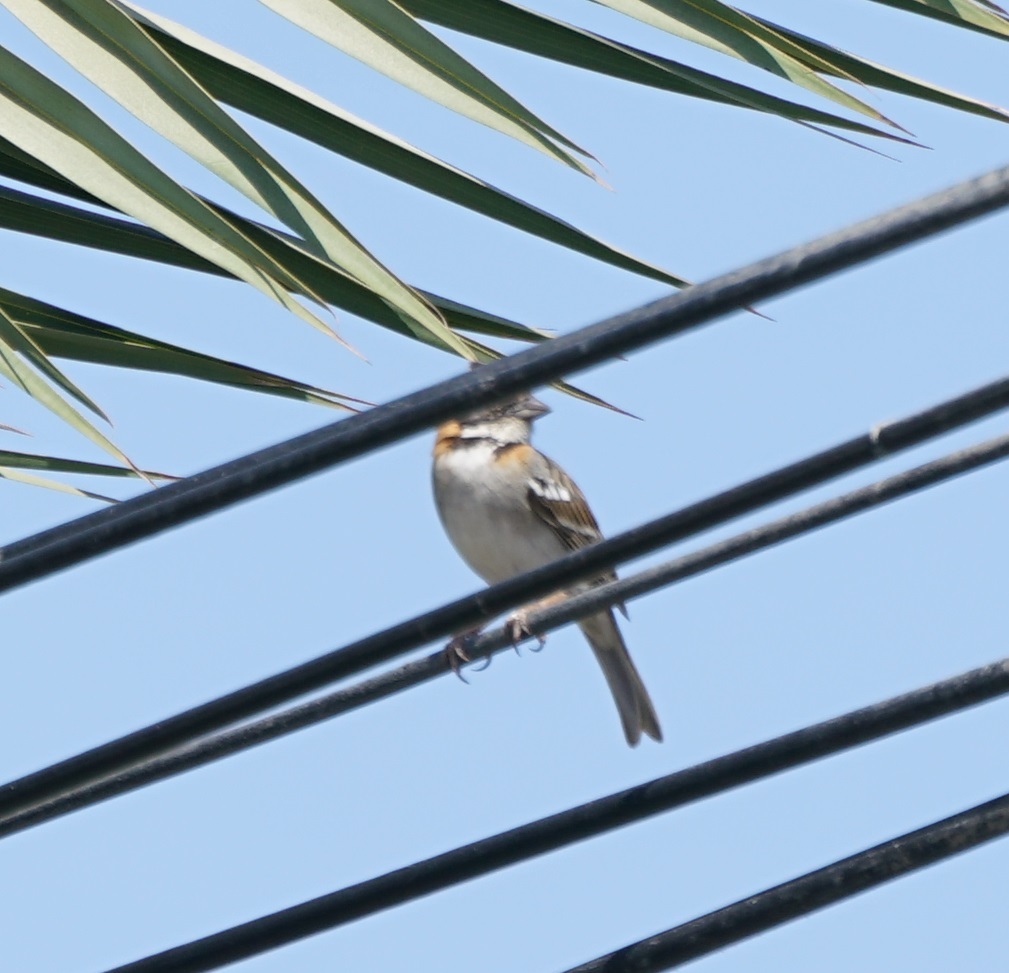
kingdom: Animalia
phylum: Chordata
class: Aves
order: Passeriformes
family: Passerellidae
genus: Zonotrichia
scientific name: Zonotrichia capensis
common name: Rufous-collared sparrow
